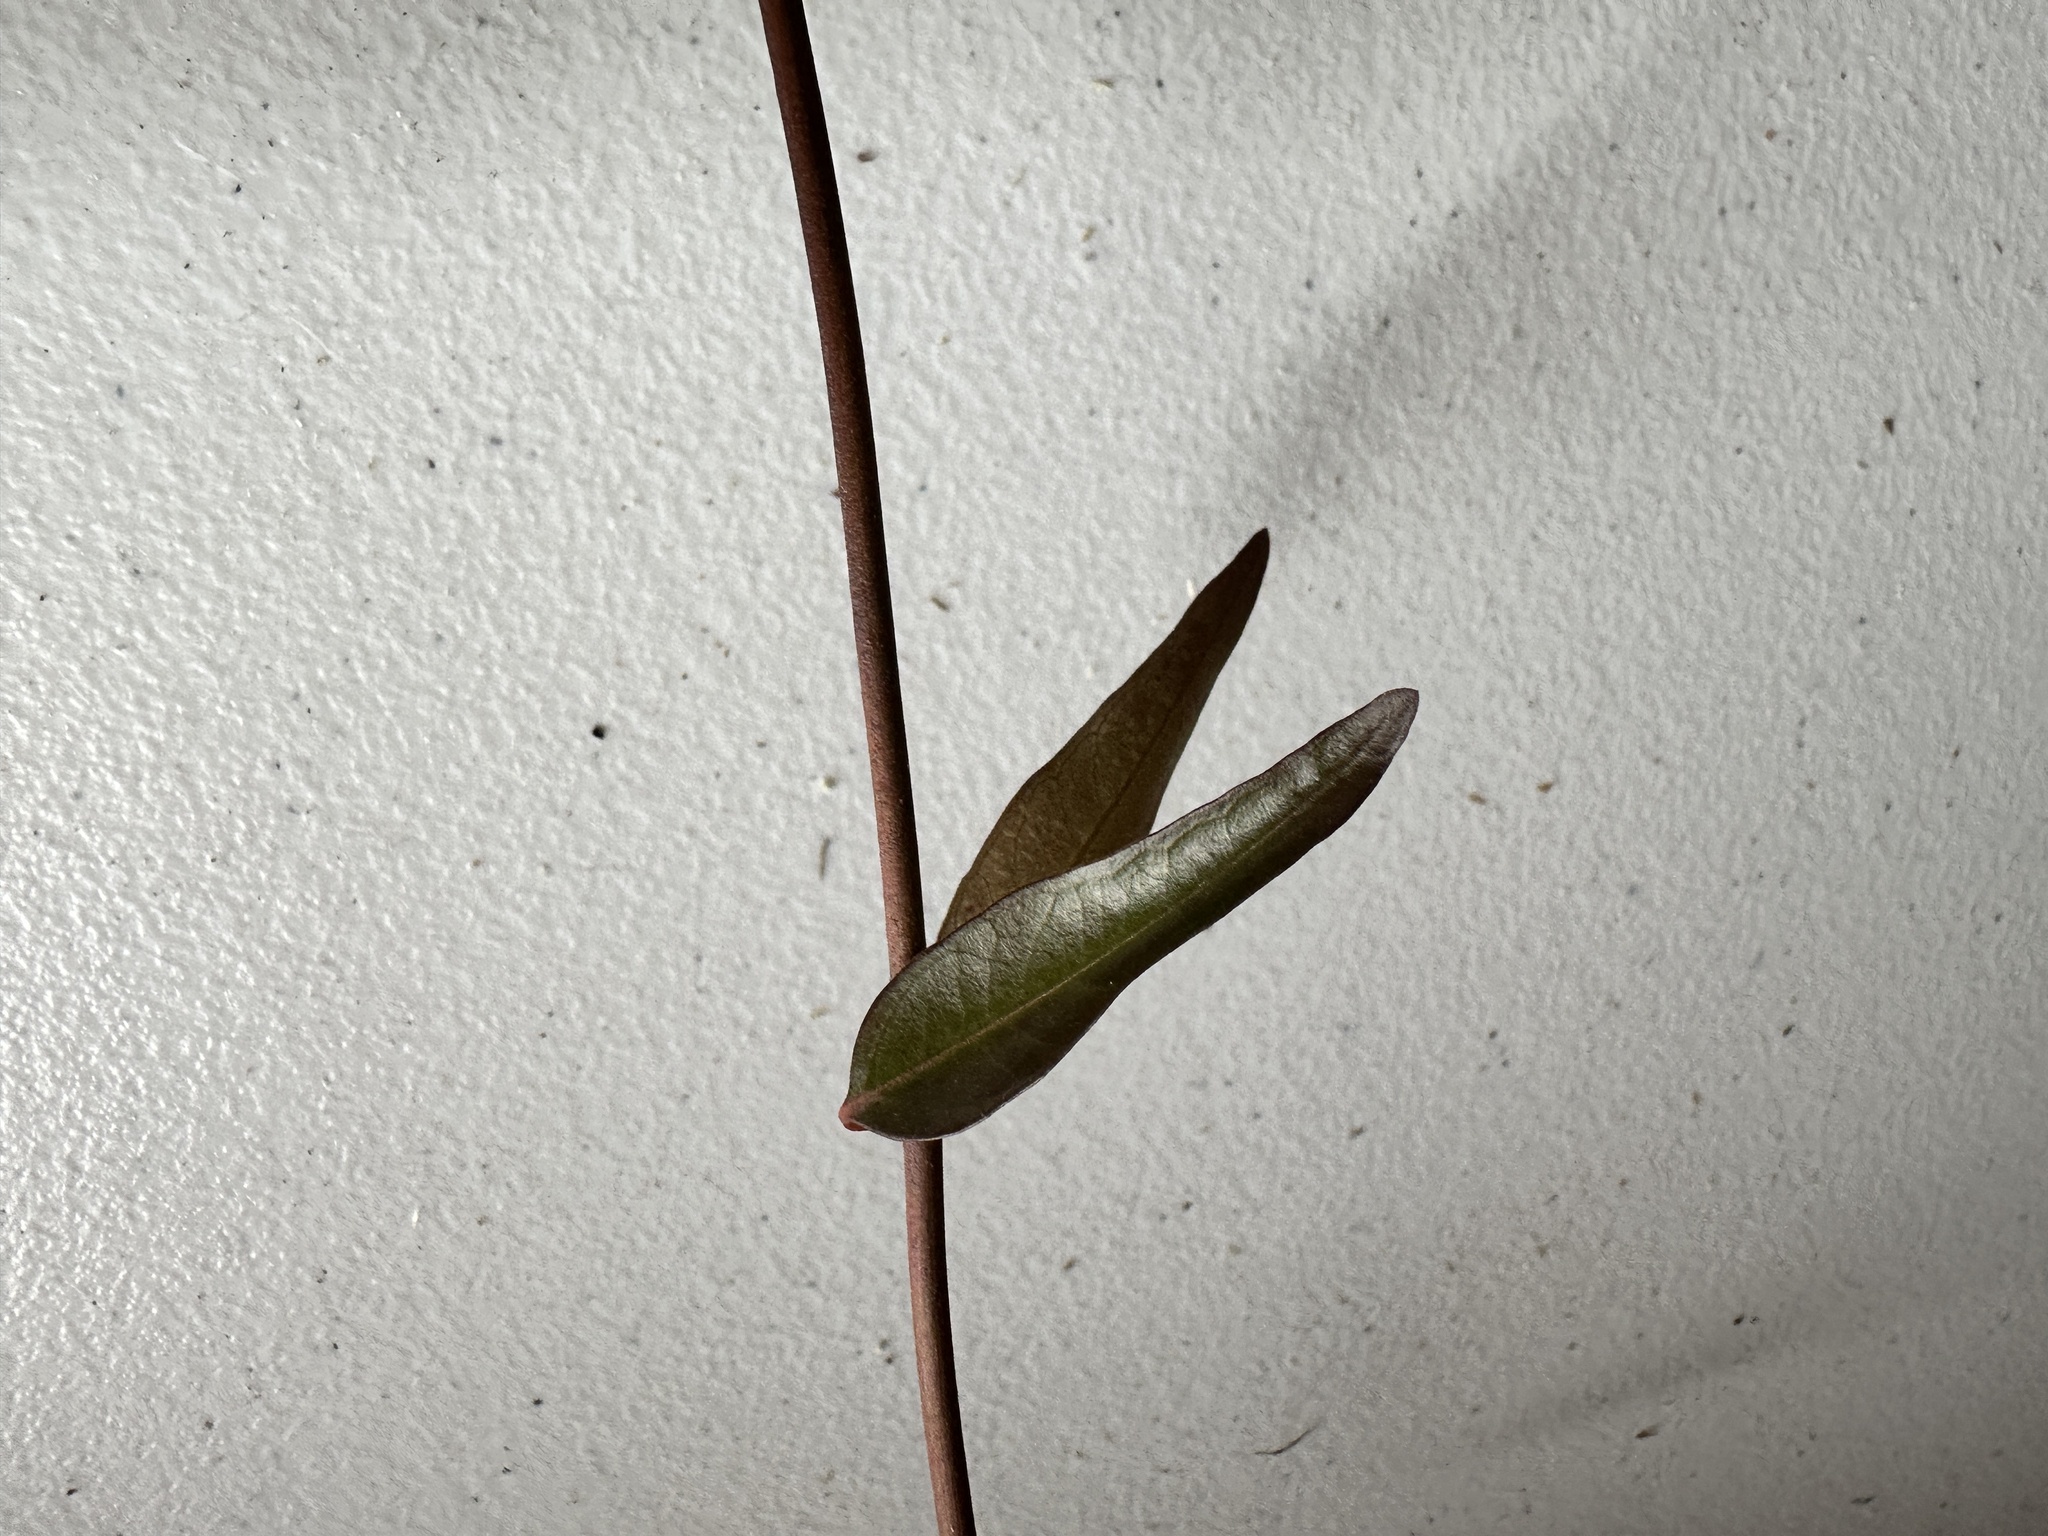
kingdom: Plantae
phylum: Tracheophyta
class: Magnoliopsida
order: Gentianales
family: Gelsemiaceae
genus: Gelsemium
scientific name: Gelsemium sempervirens
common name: Carolina-jasmine
